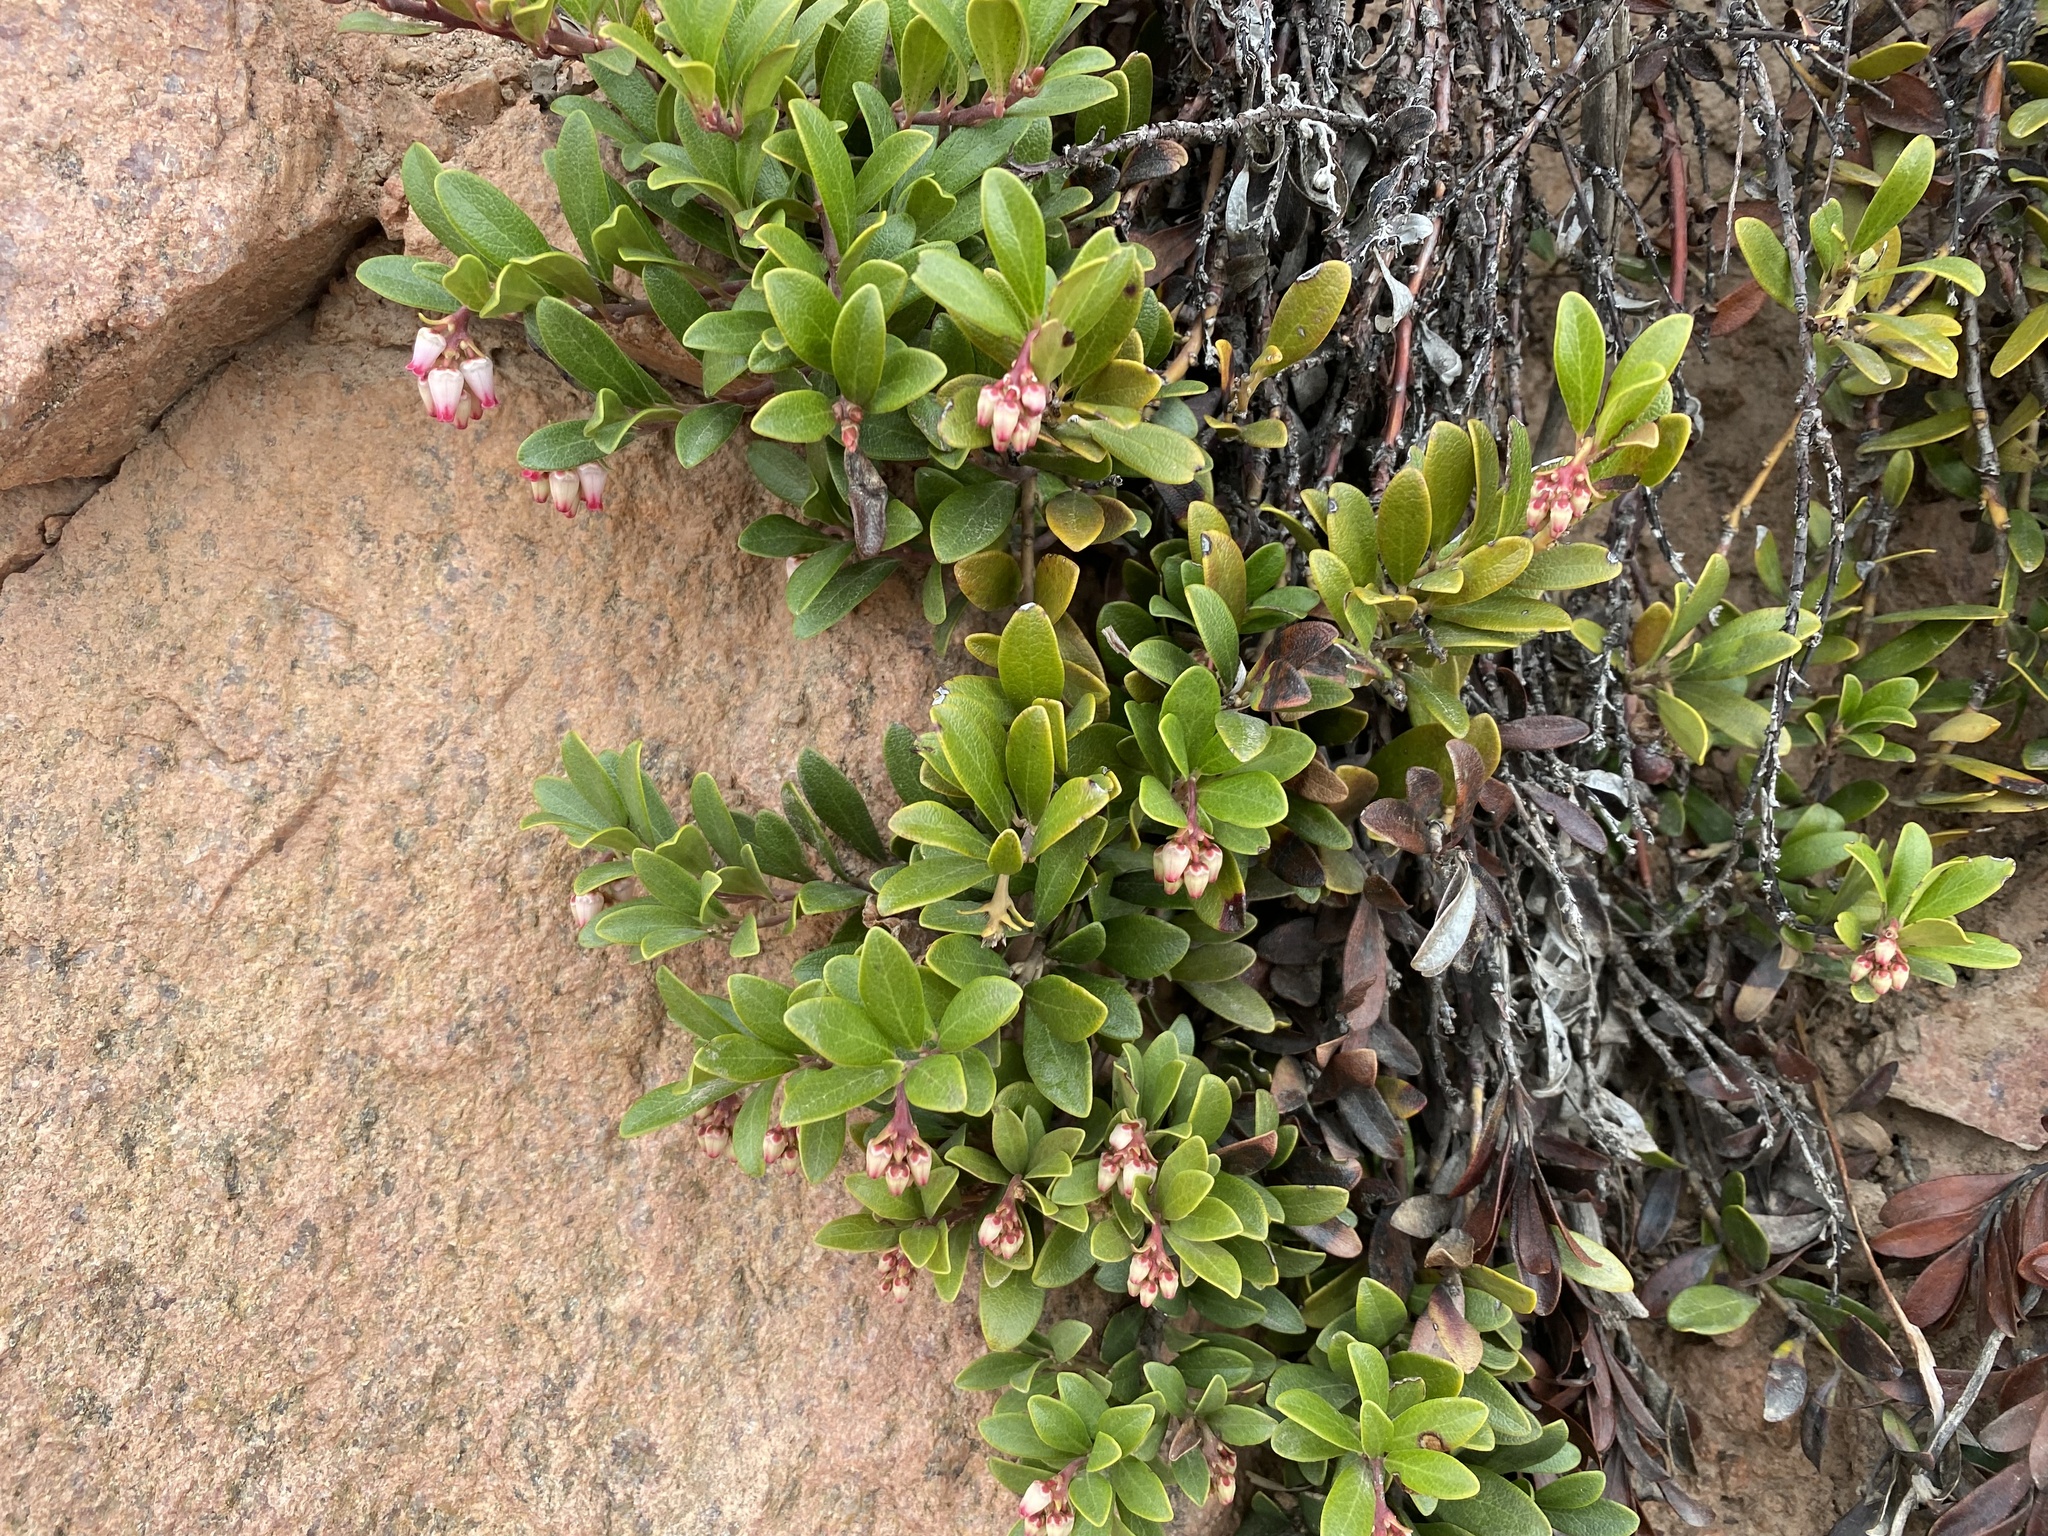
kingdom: Plantae
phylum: Tracheophyta
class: Magnoliopsida
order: Ericales
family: Ericaceae
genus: Arctostaphylos
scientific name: Arctostaphylos uva-ursi
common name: Bearberry
